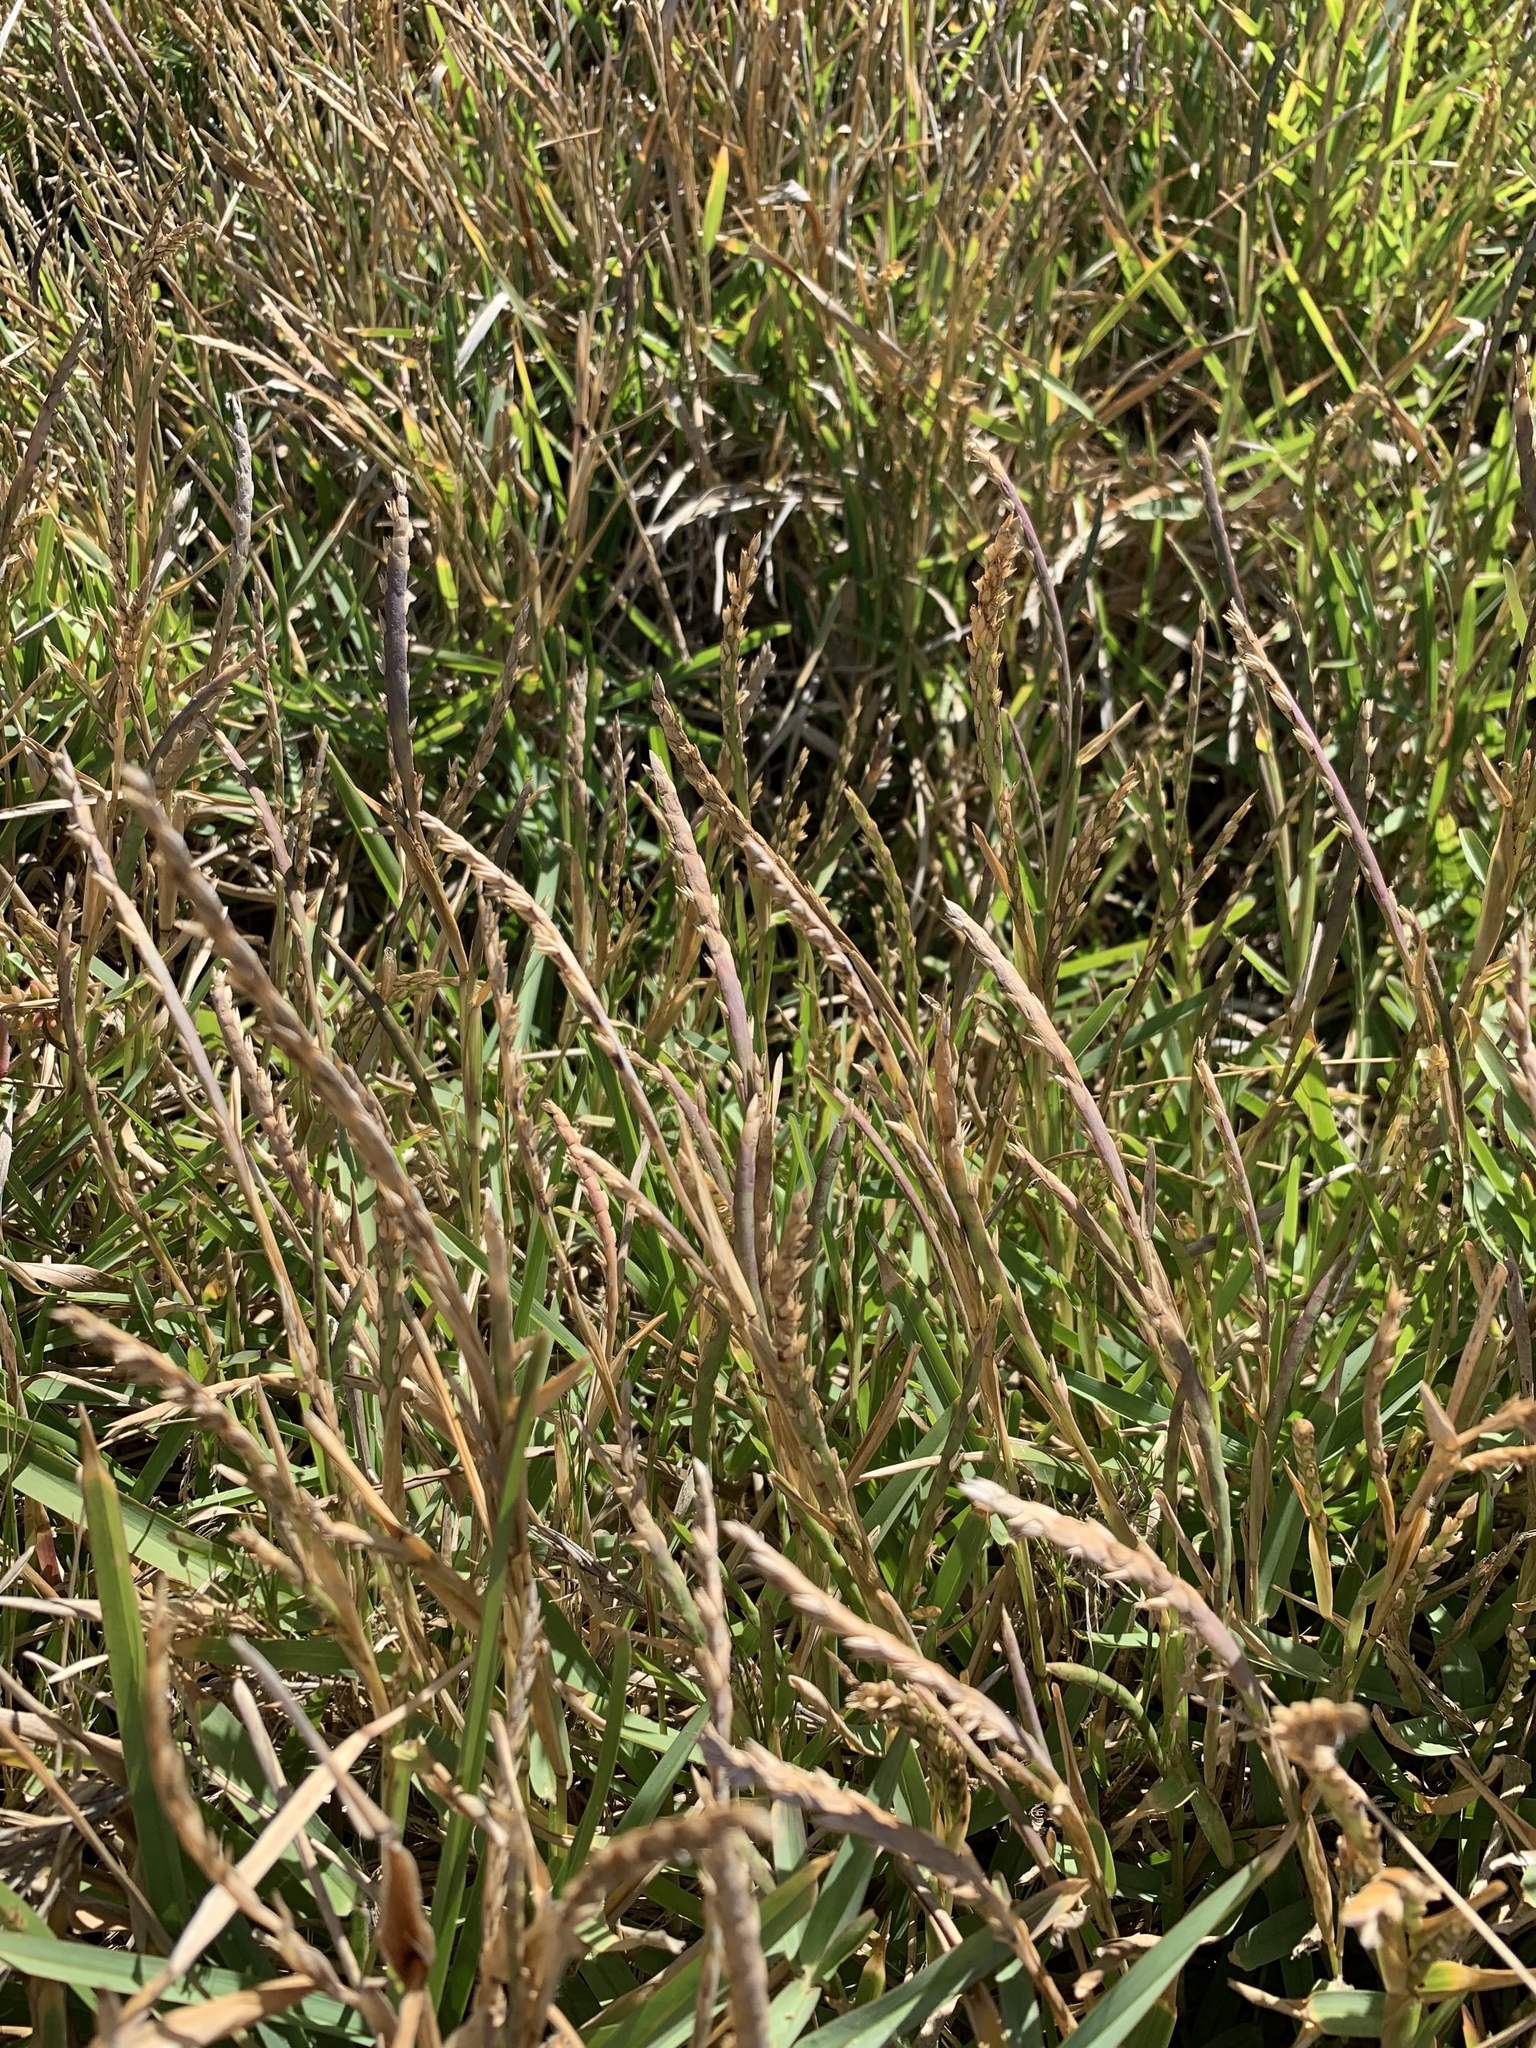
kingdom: Plantae
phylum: Tracheophyta
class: Liliopsida
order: Poales
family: Poaceae
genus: Stenotaphrum
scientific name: Stenotaphrum secundatum
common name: St. augustine grass
